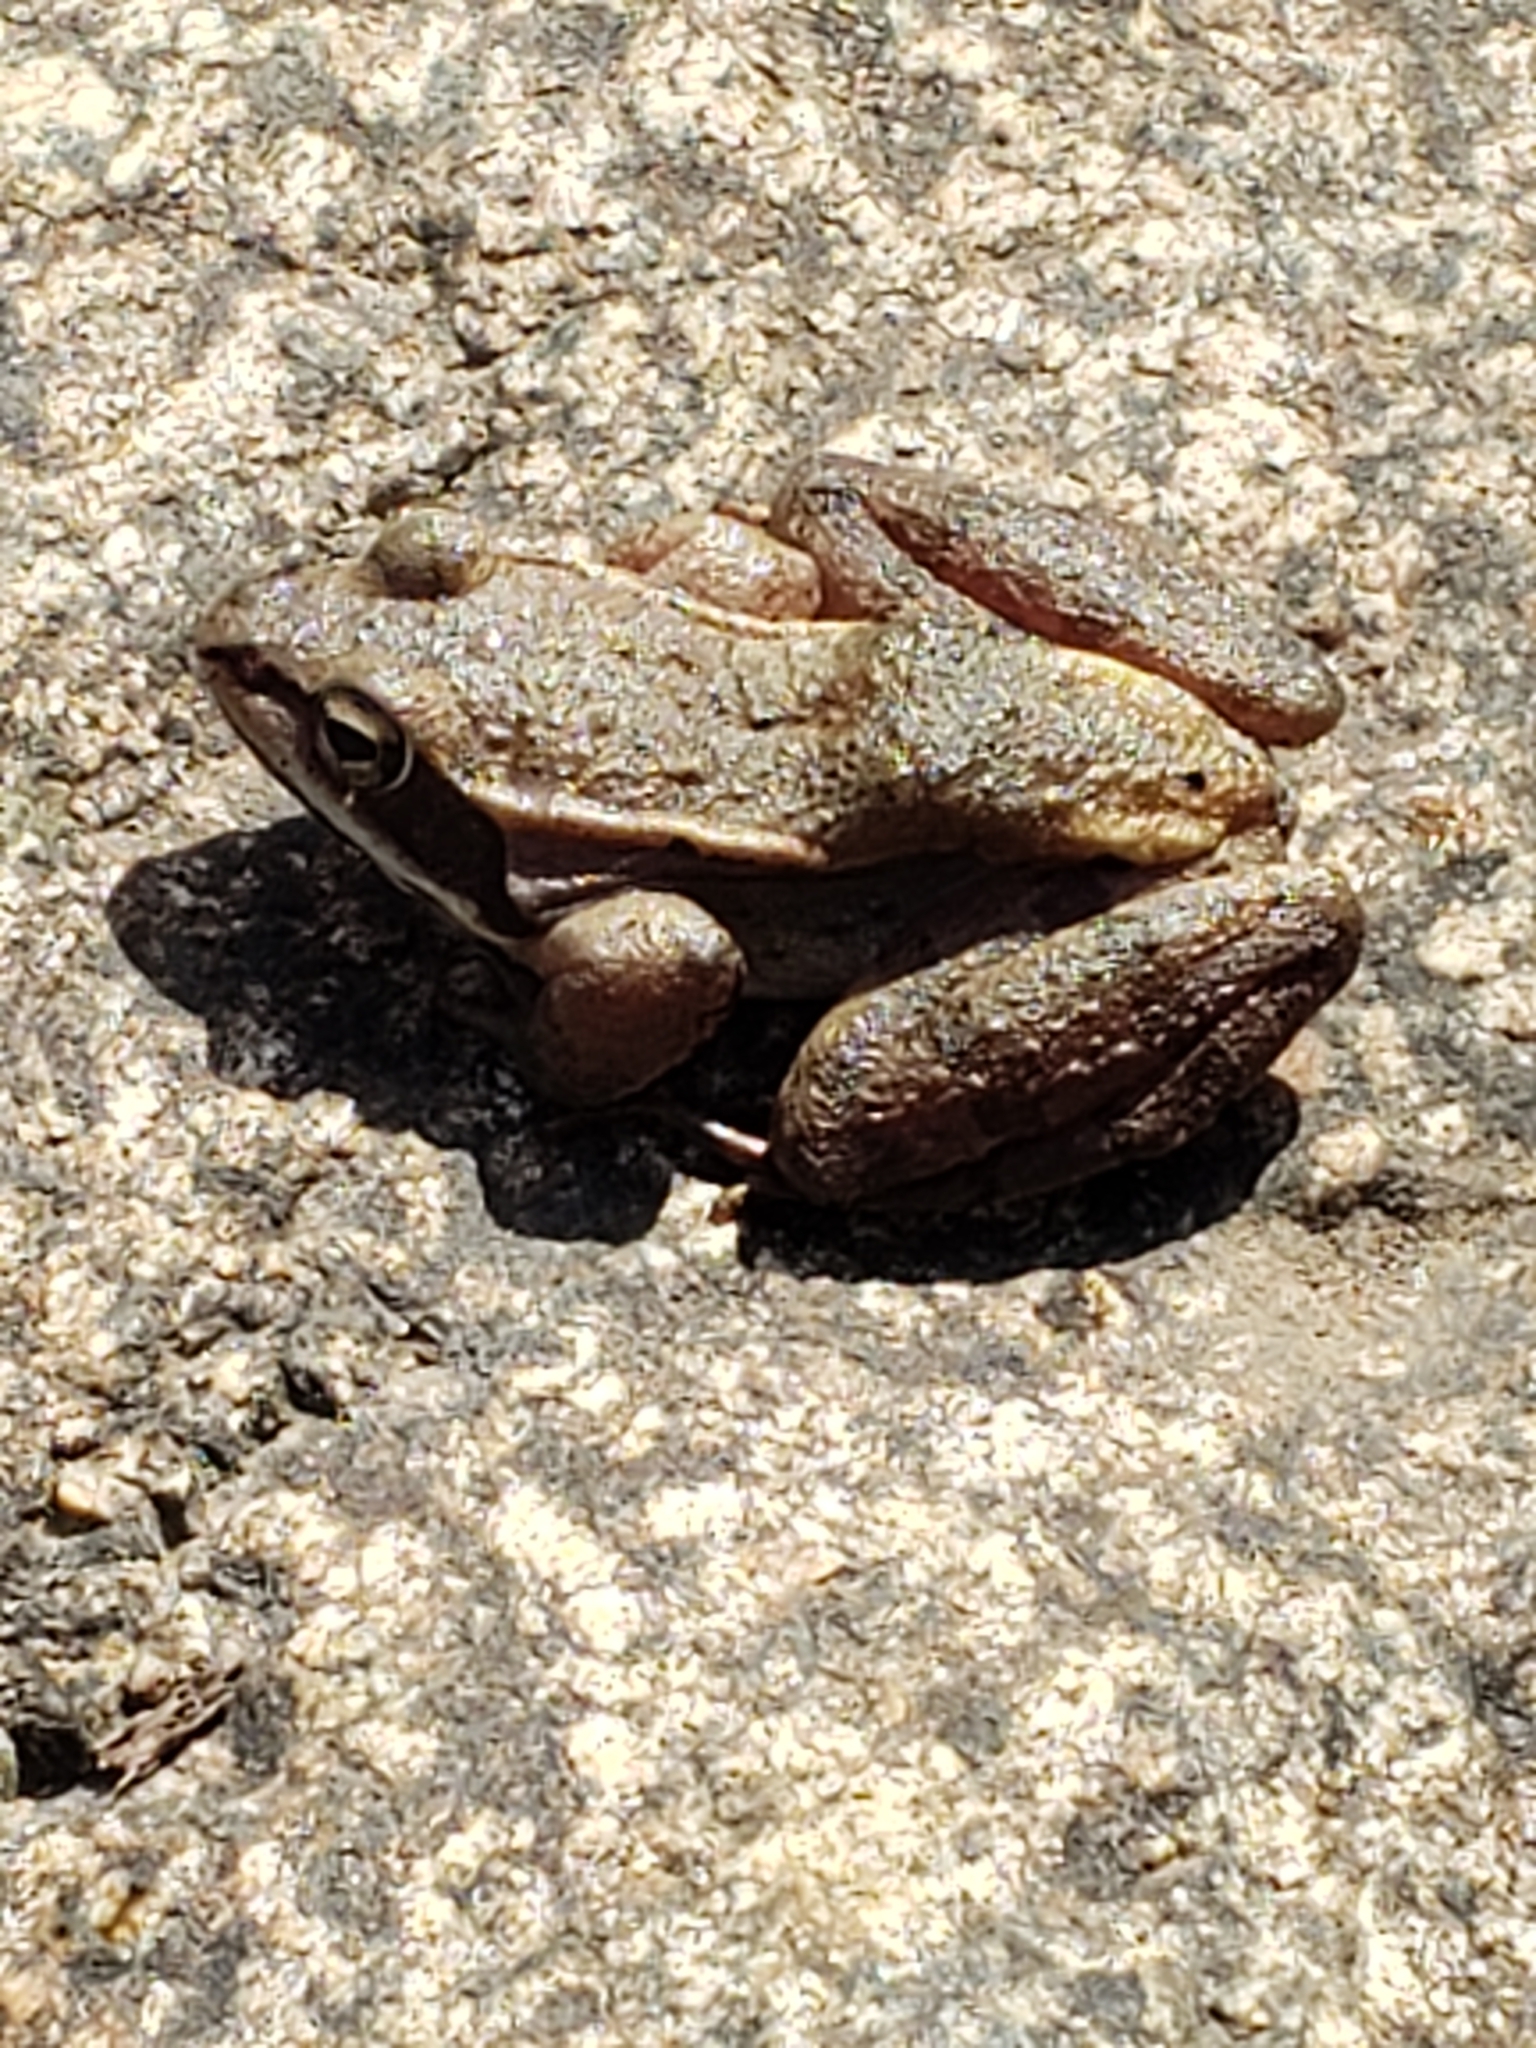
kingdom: Animalia
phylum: Chordata
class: Amphibia
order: Anura
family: Ranidae
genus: Lithobates
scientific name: Lithobates sylvaticus
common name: Wood frog
